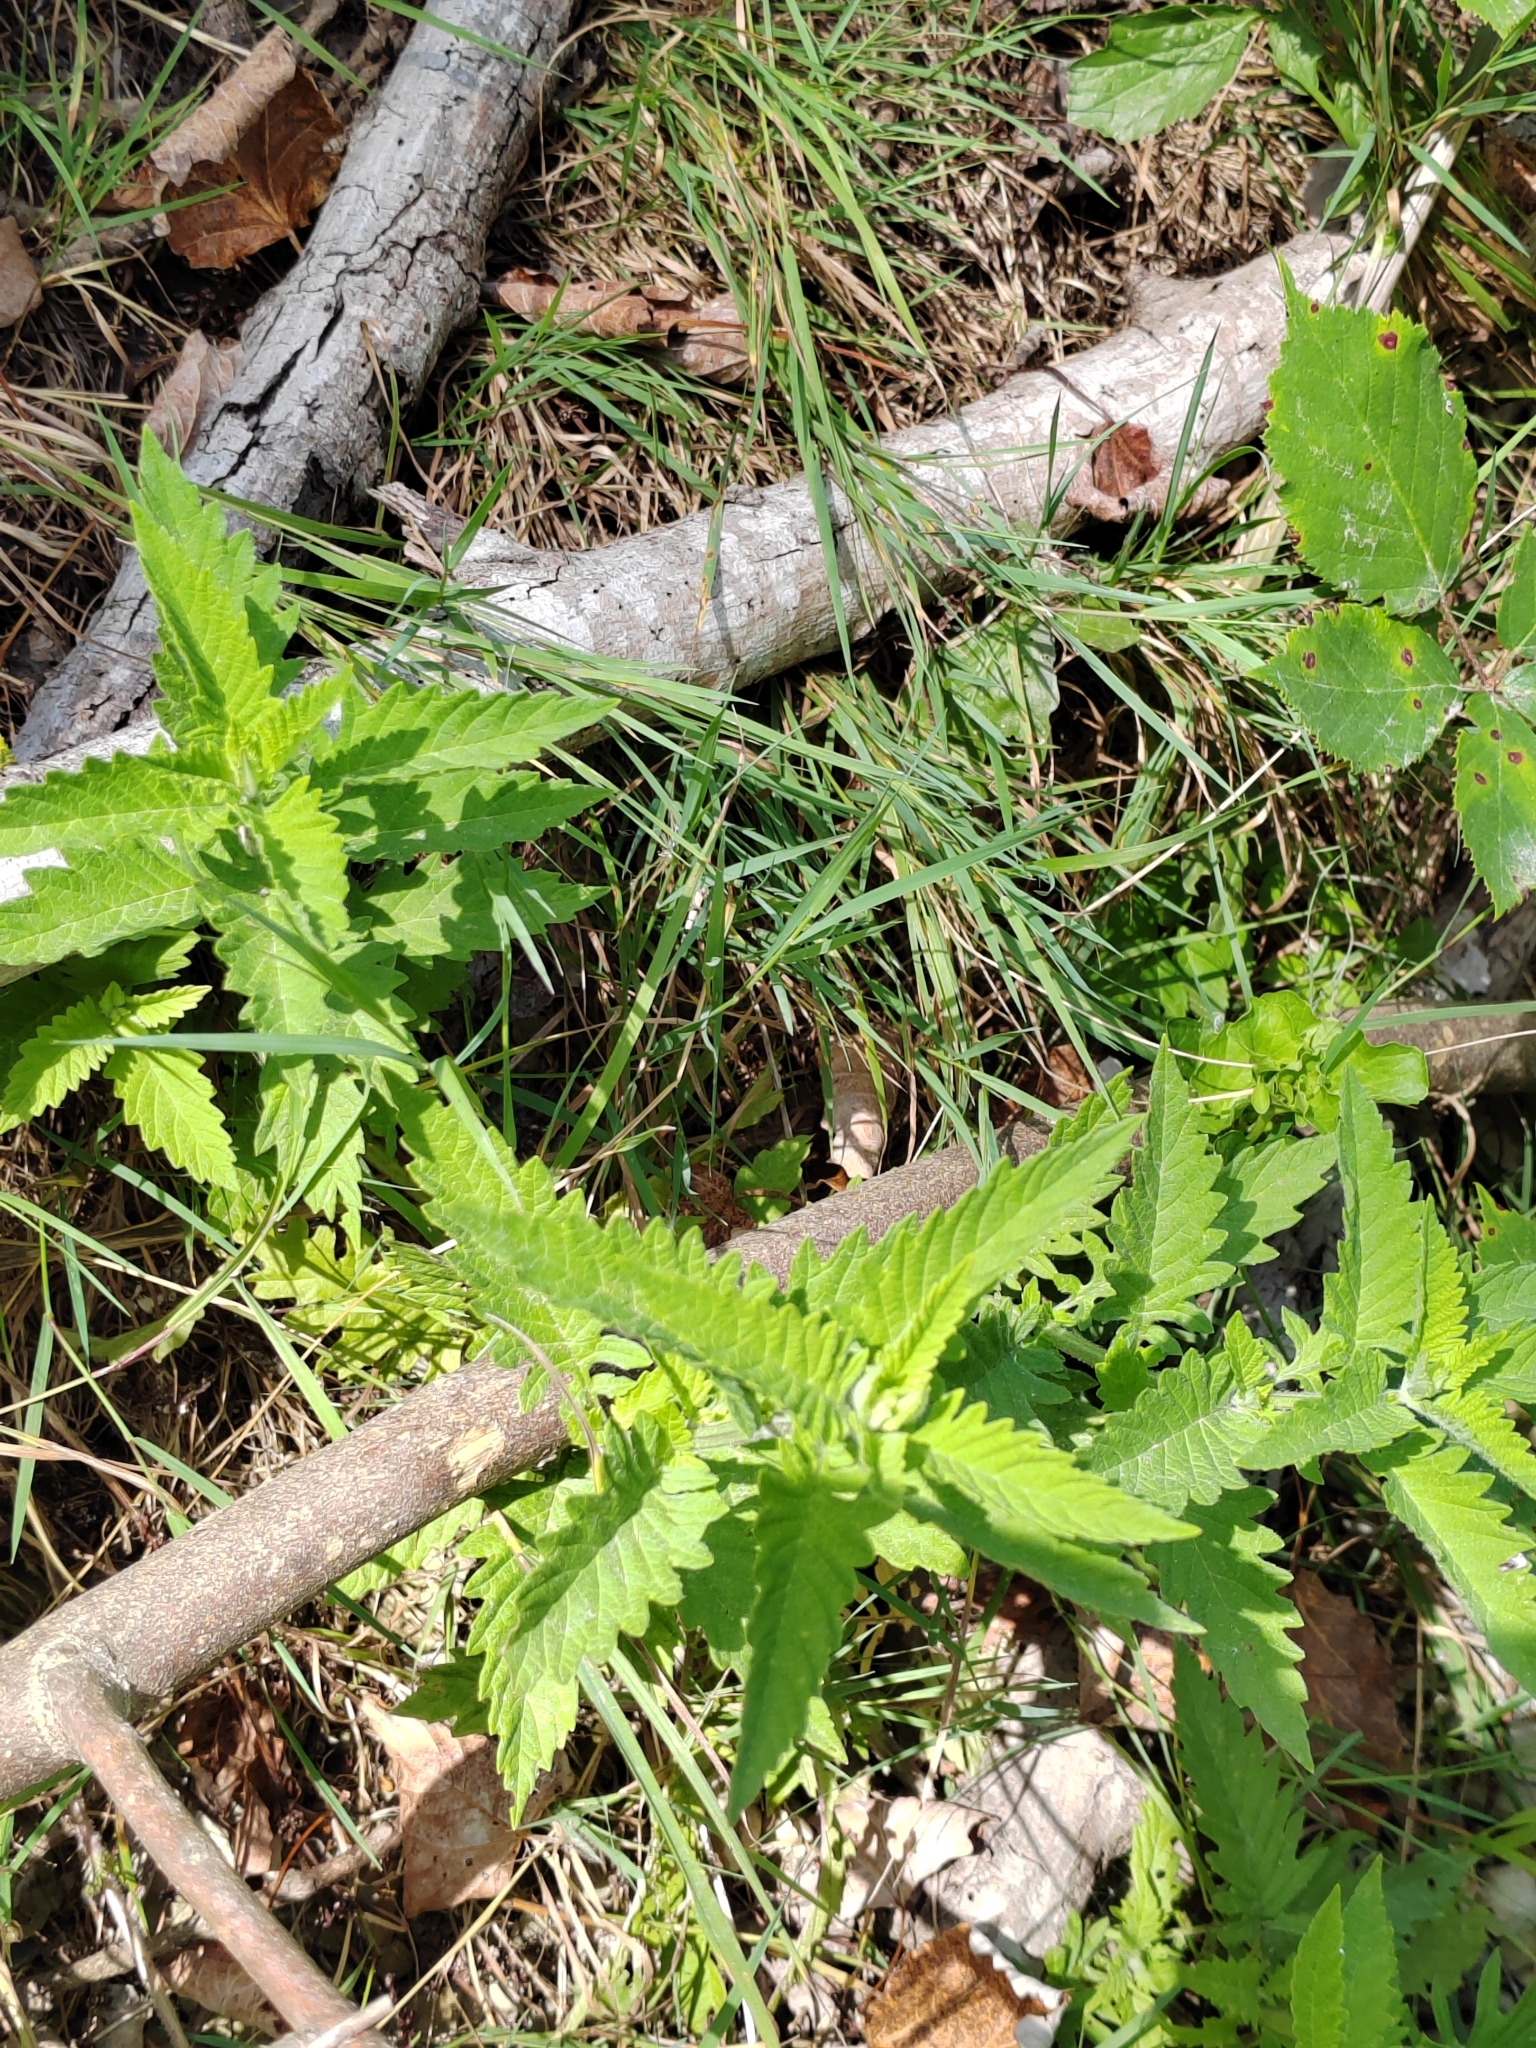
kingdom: Plantae
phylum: Tracheophyta
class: Magnoliopsida
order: Lamiales
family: Lamiaceae
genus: Lycopus
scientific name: Lycopus europaeus
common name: European bugleweed
